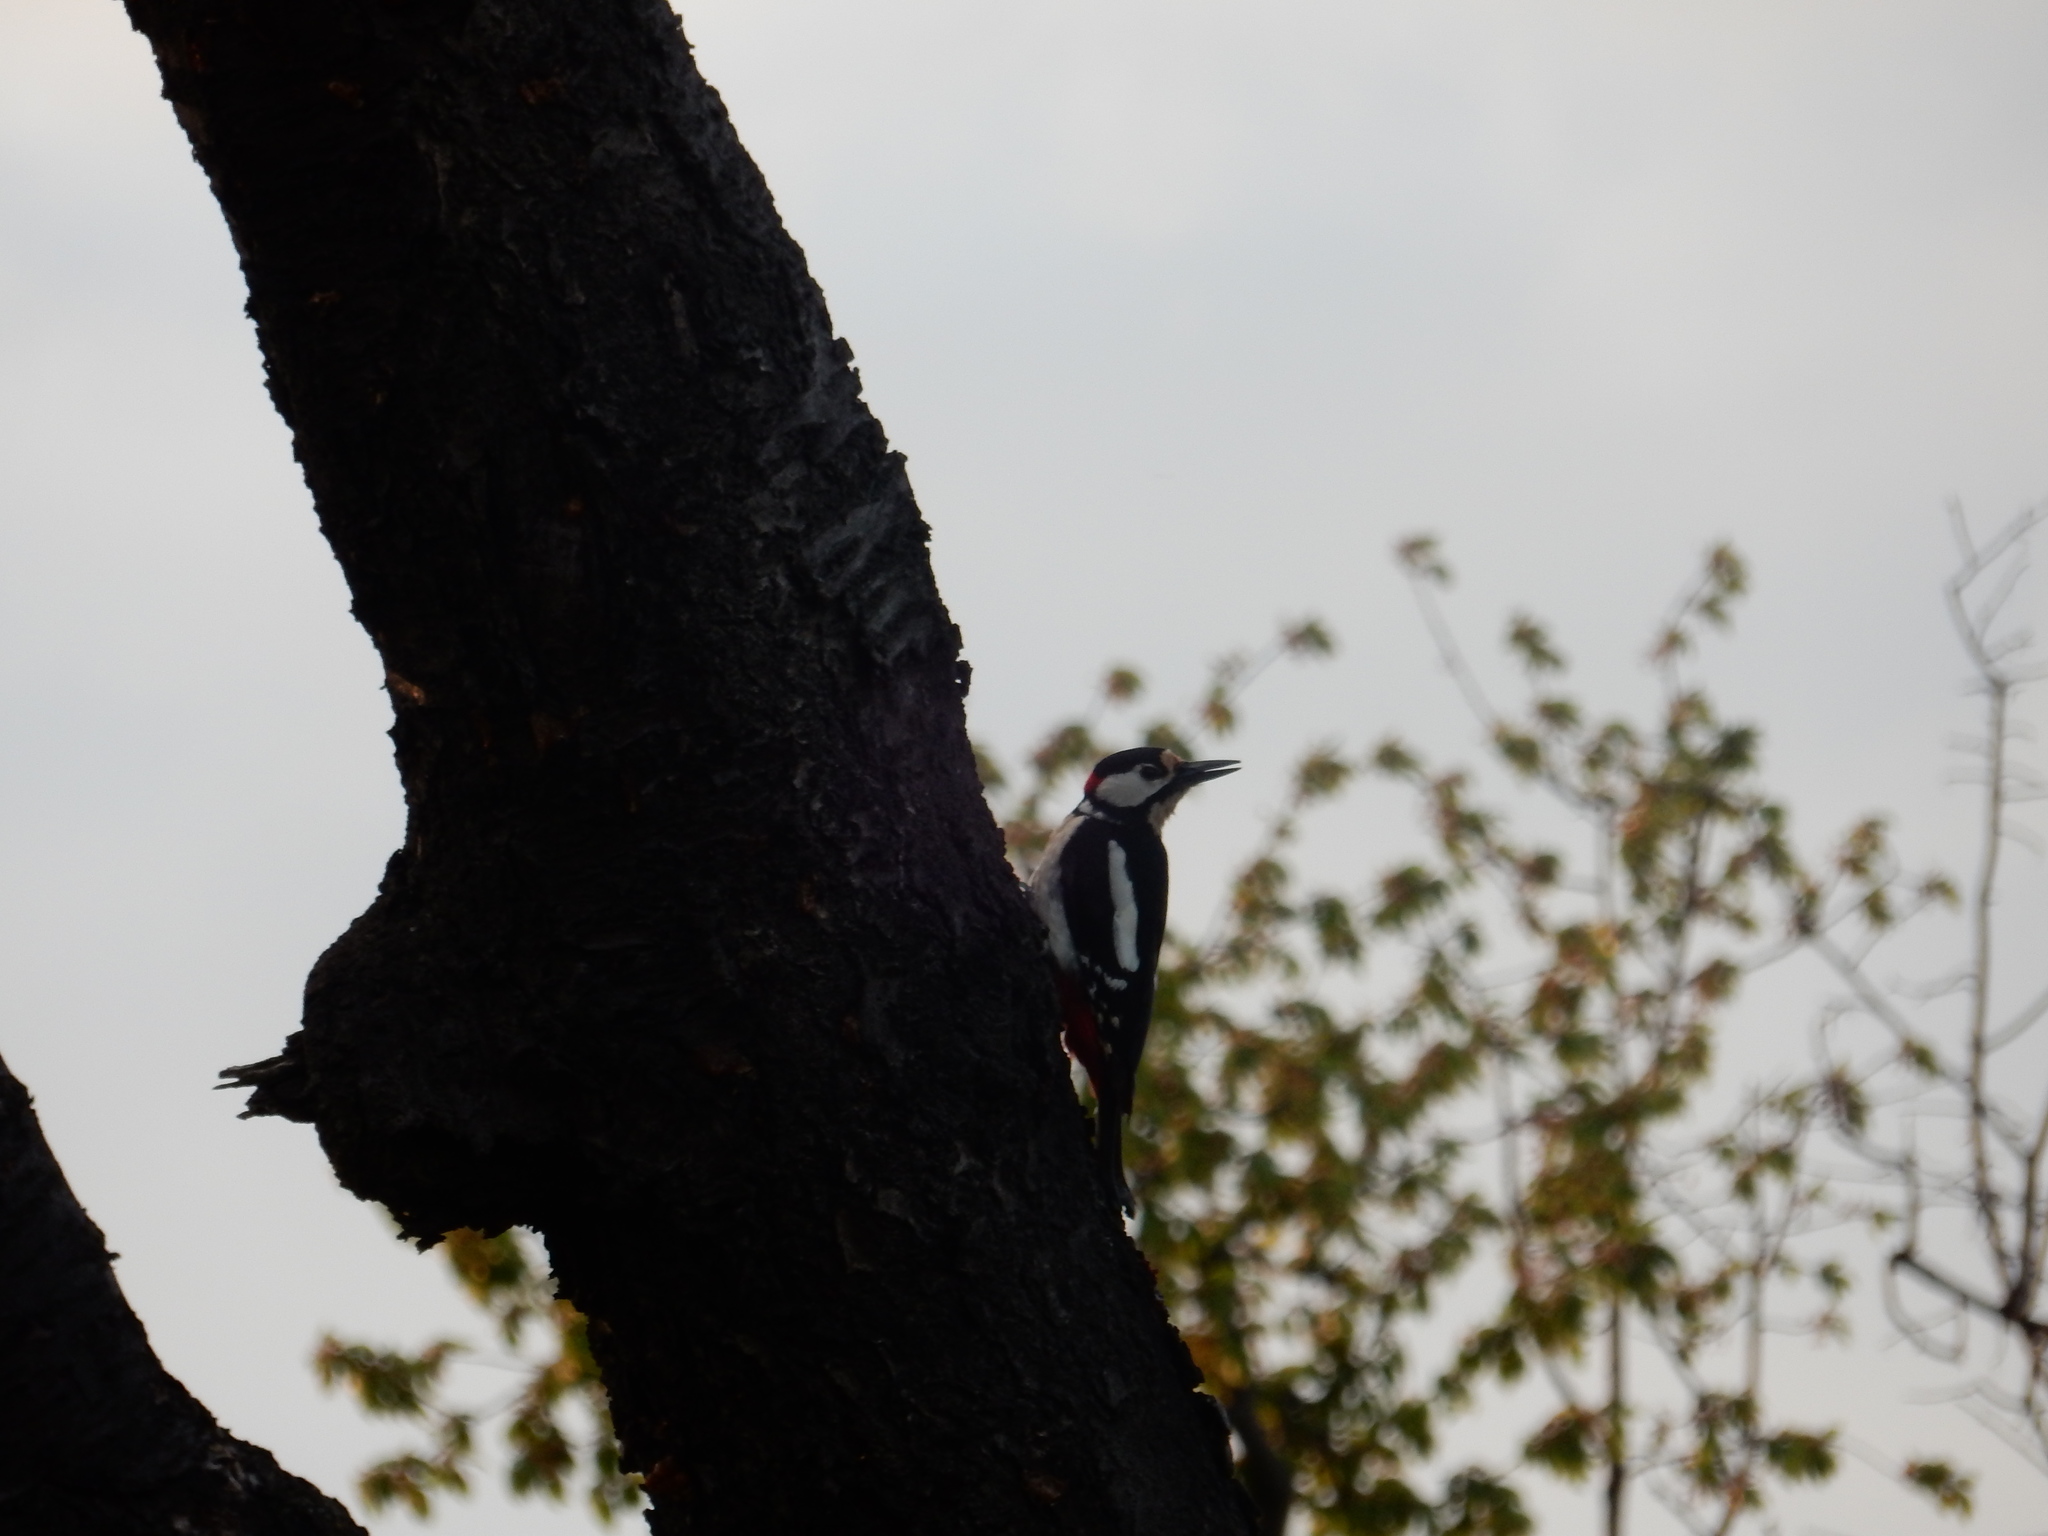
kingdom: Animalia
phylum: Chordata
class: Aves
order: Piciformes
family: Picidae
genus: Dendrocopos
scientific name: Dendrocopos major
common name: Great spotted woodpecker
